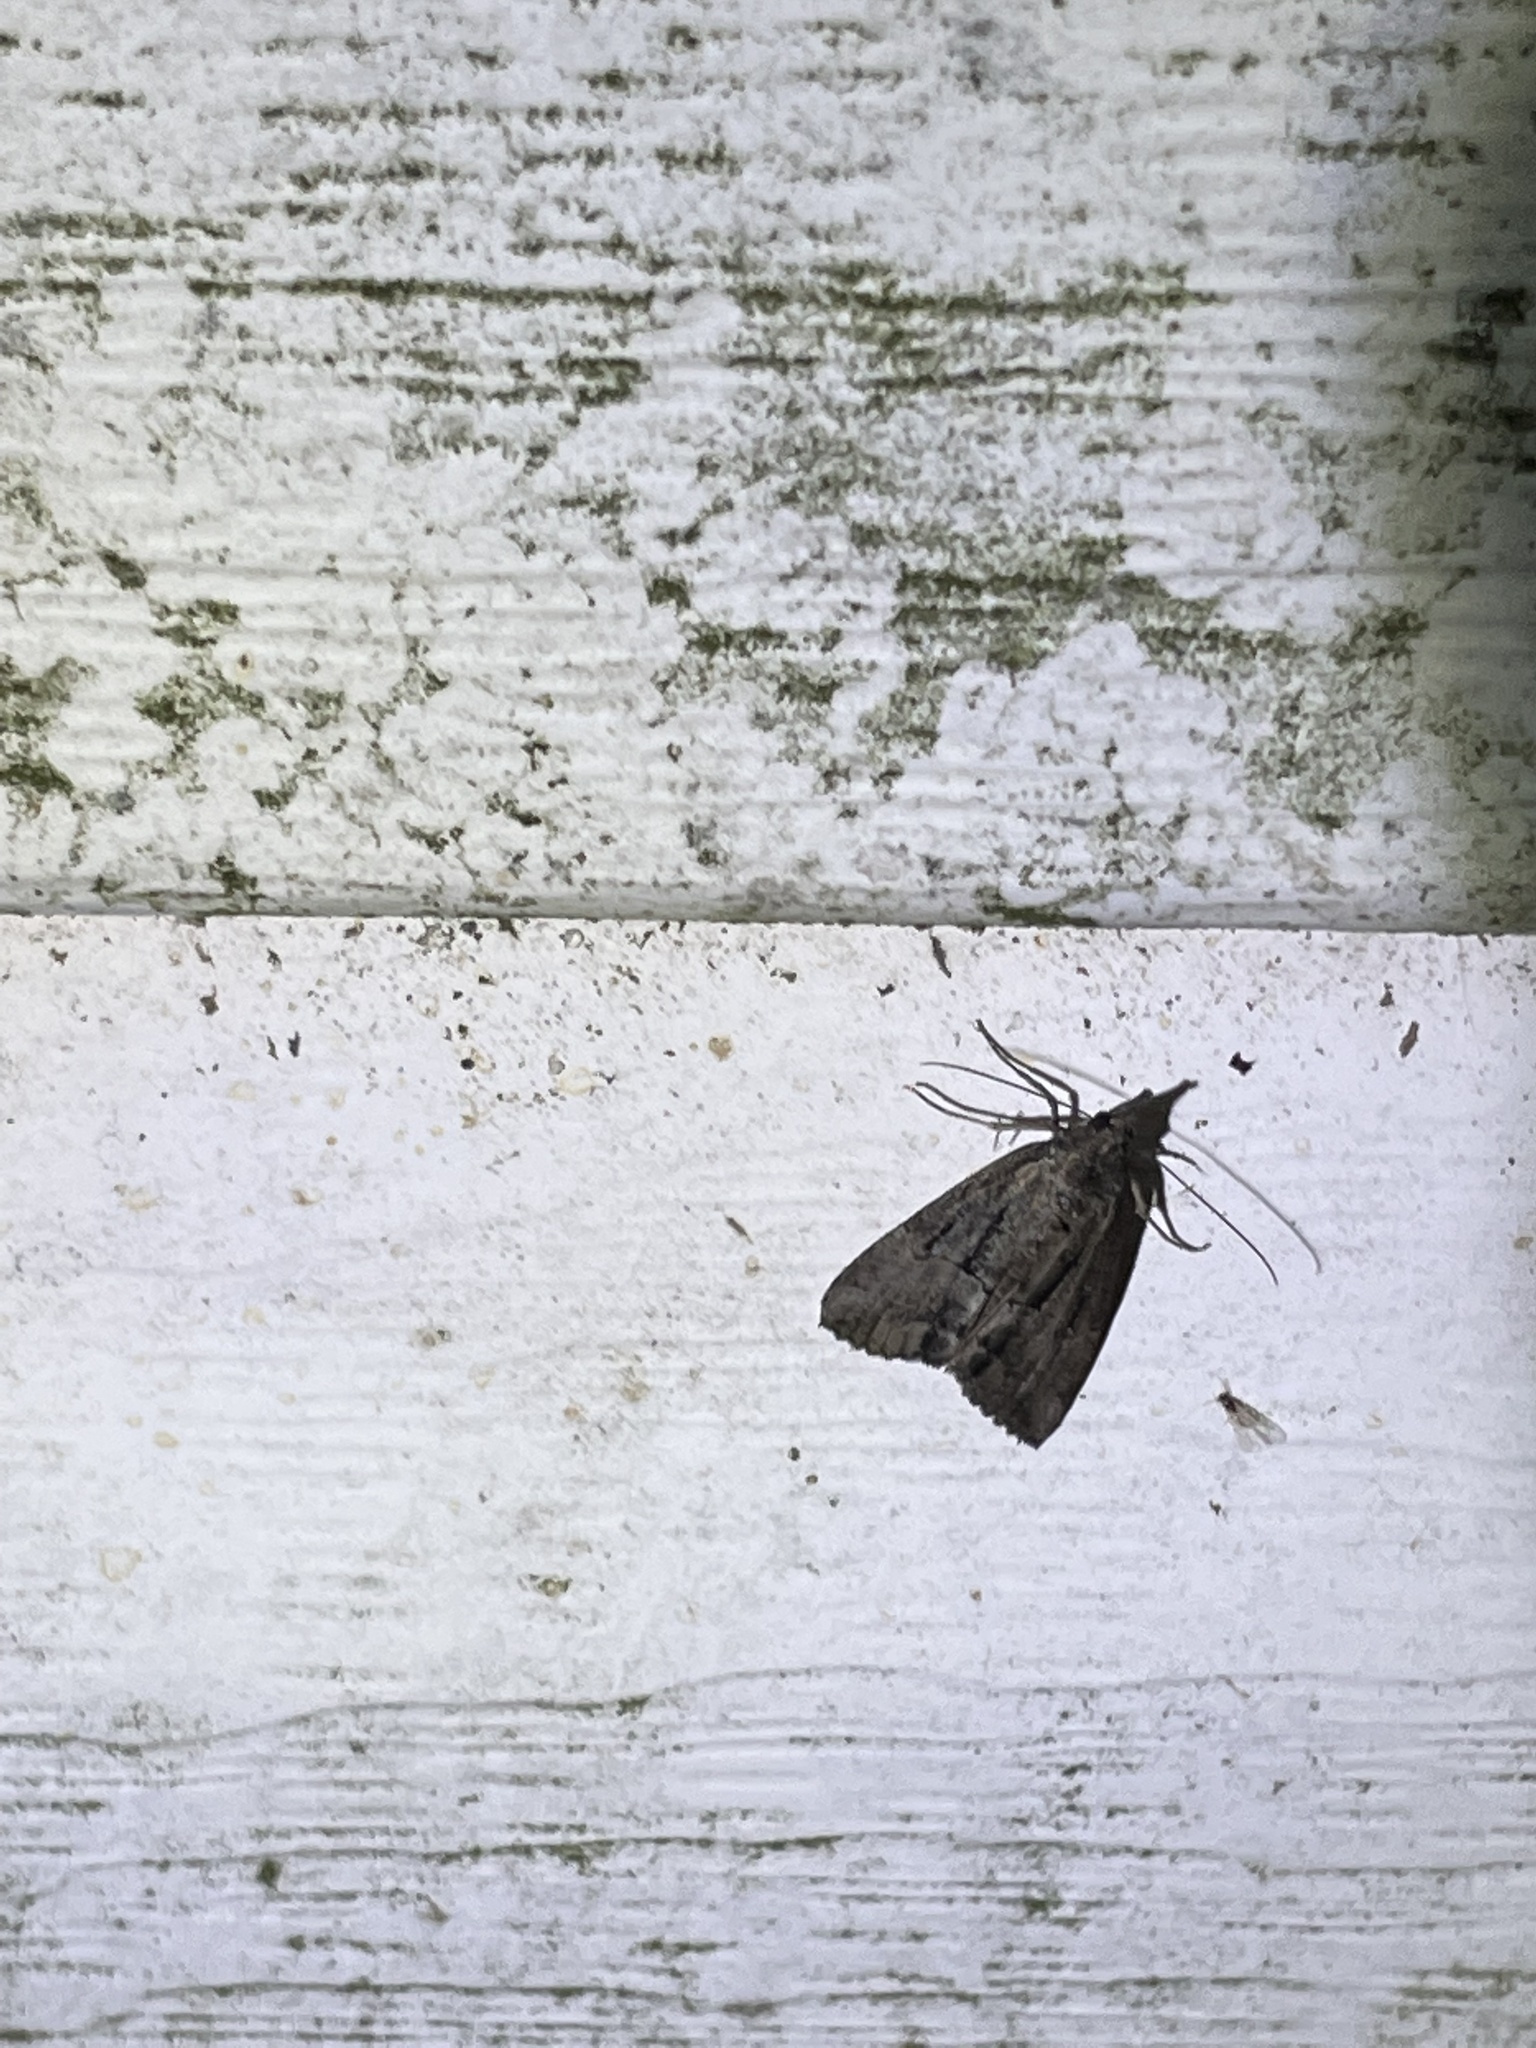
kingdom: Animalia
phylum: Arthropoda
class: Insecta
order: Lepidoptera
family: Erebidae
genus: Hypena
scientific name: Hypena scabra
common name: Green cloverworm
